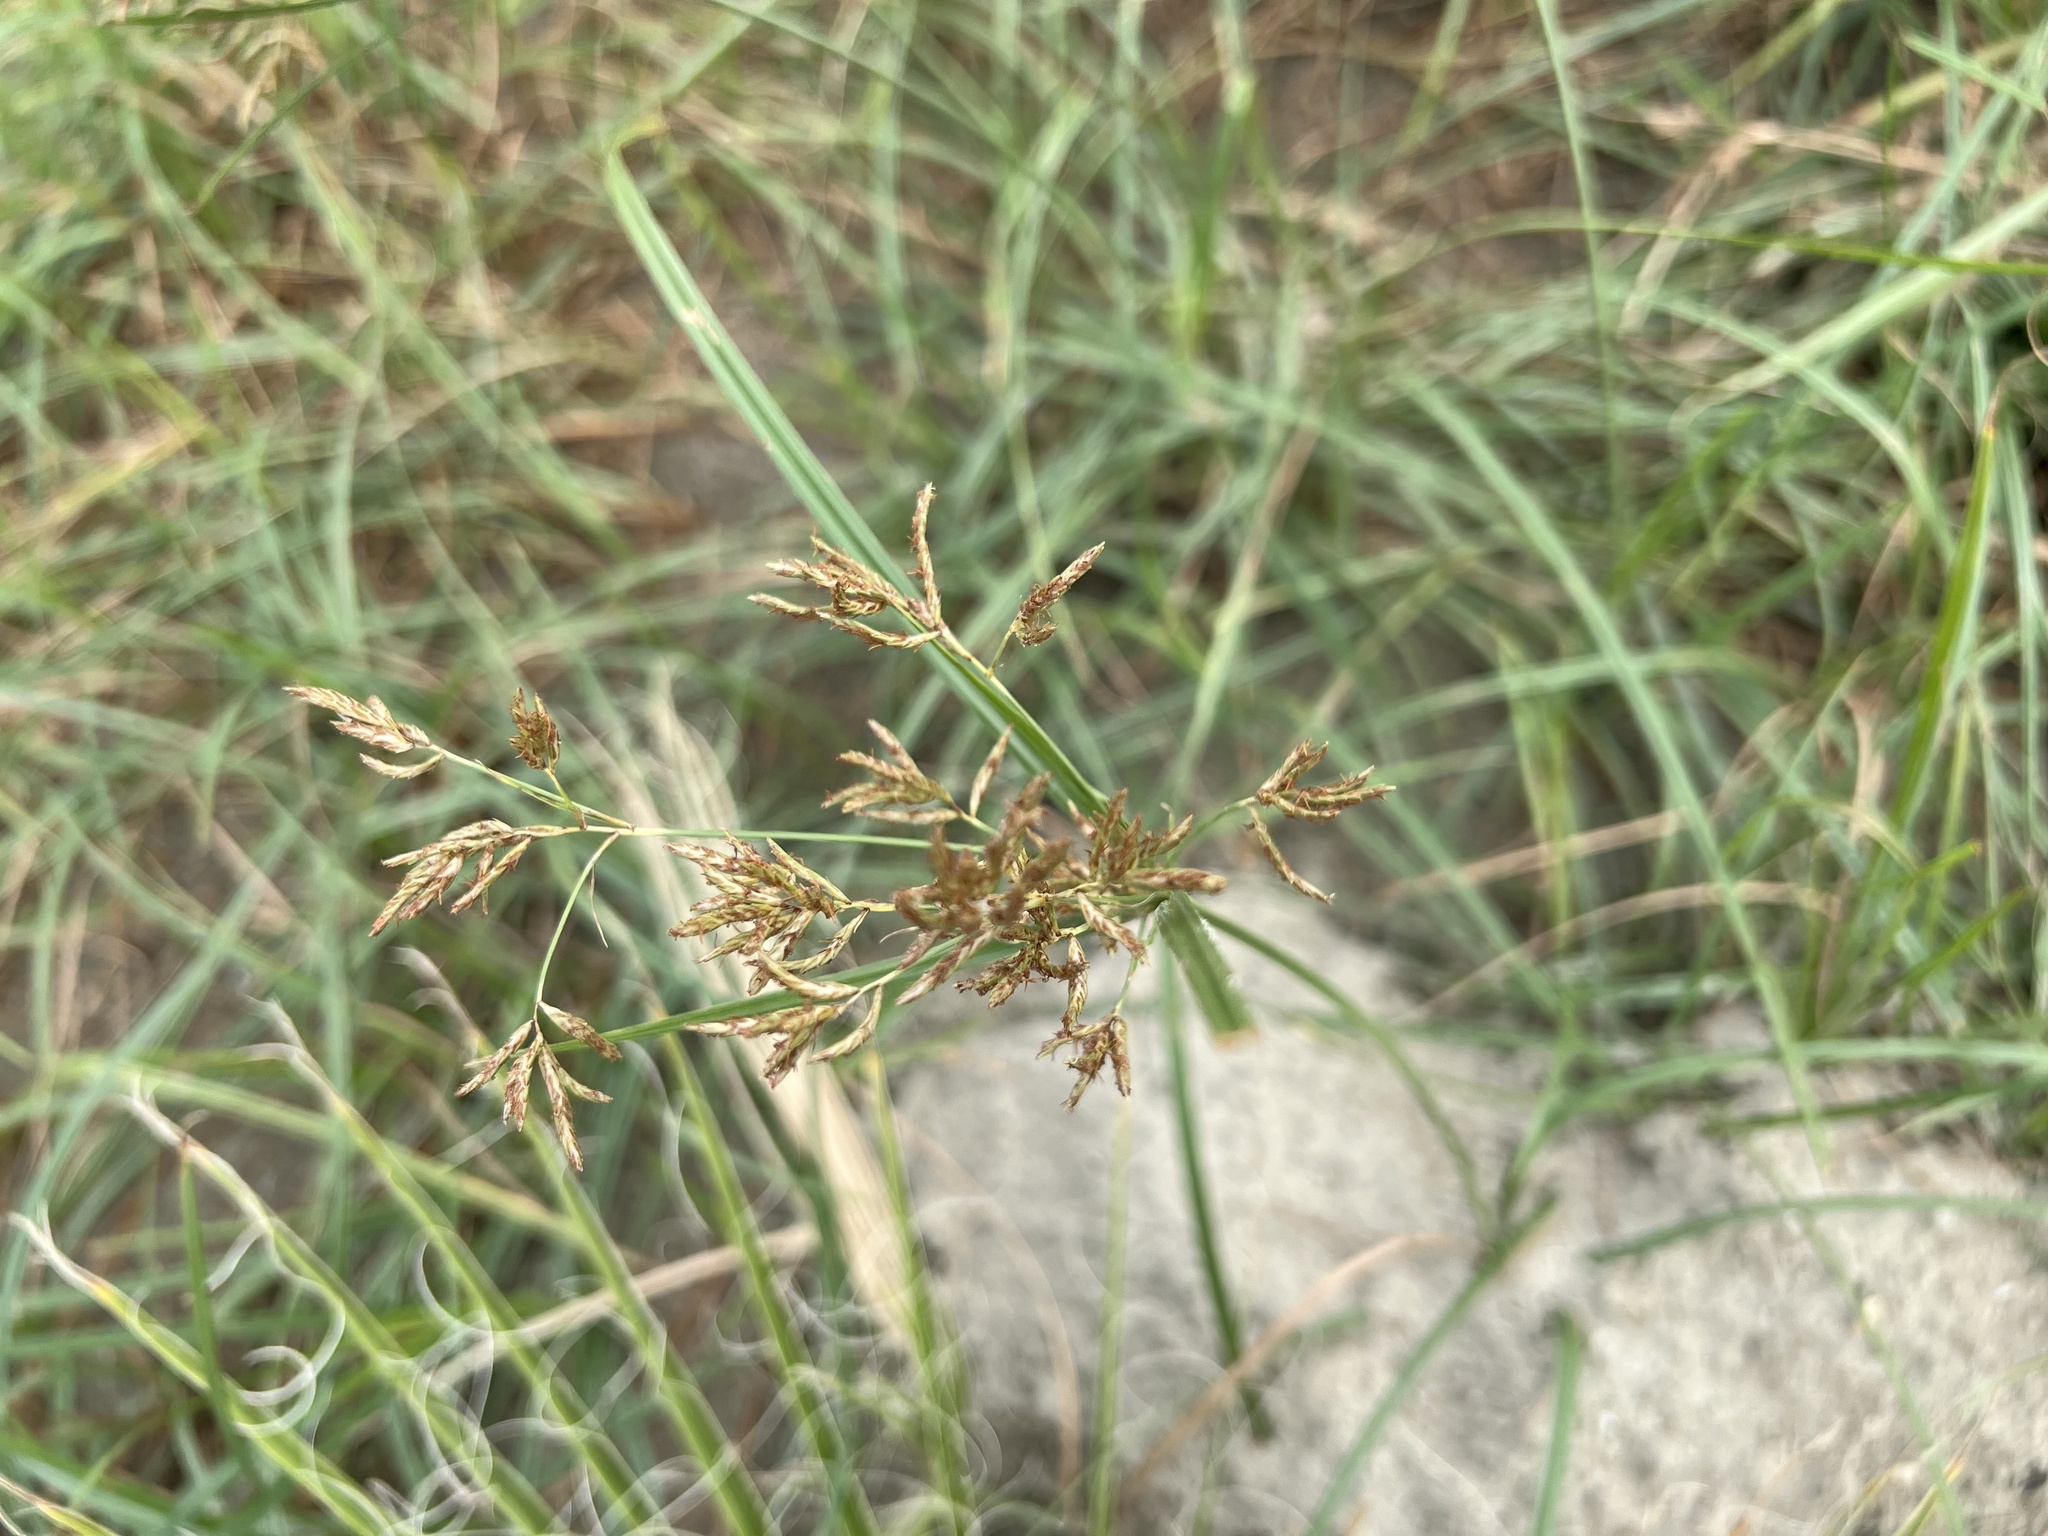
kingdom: Plantae
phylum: Tracheophyta
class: Liliopsida
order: Poales
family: Cyperaceae
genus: Cyperus
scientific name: Cyperus esculentus
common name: Yellow nutsedge
